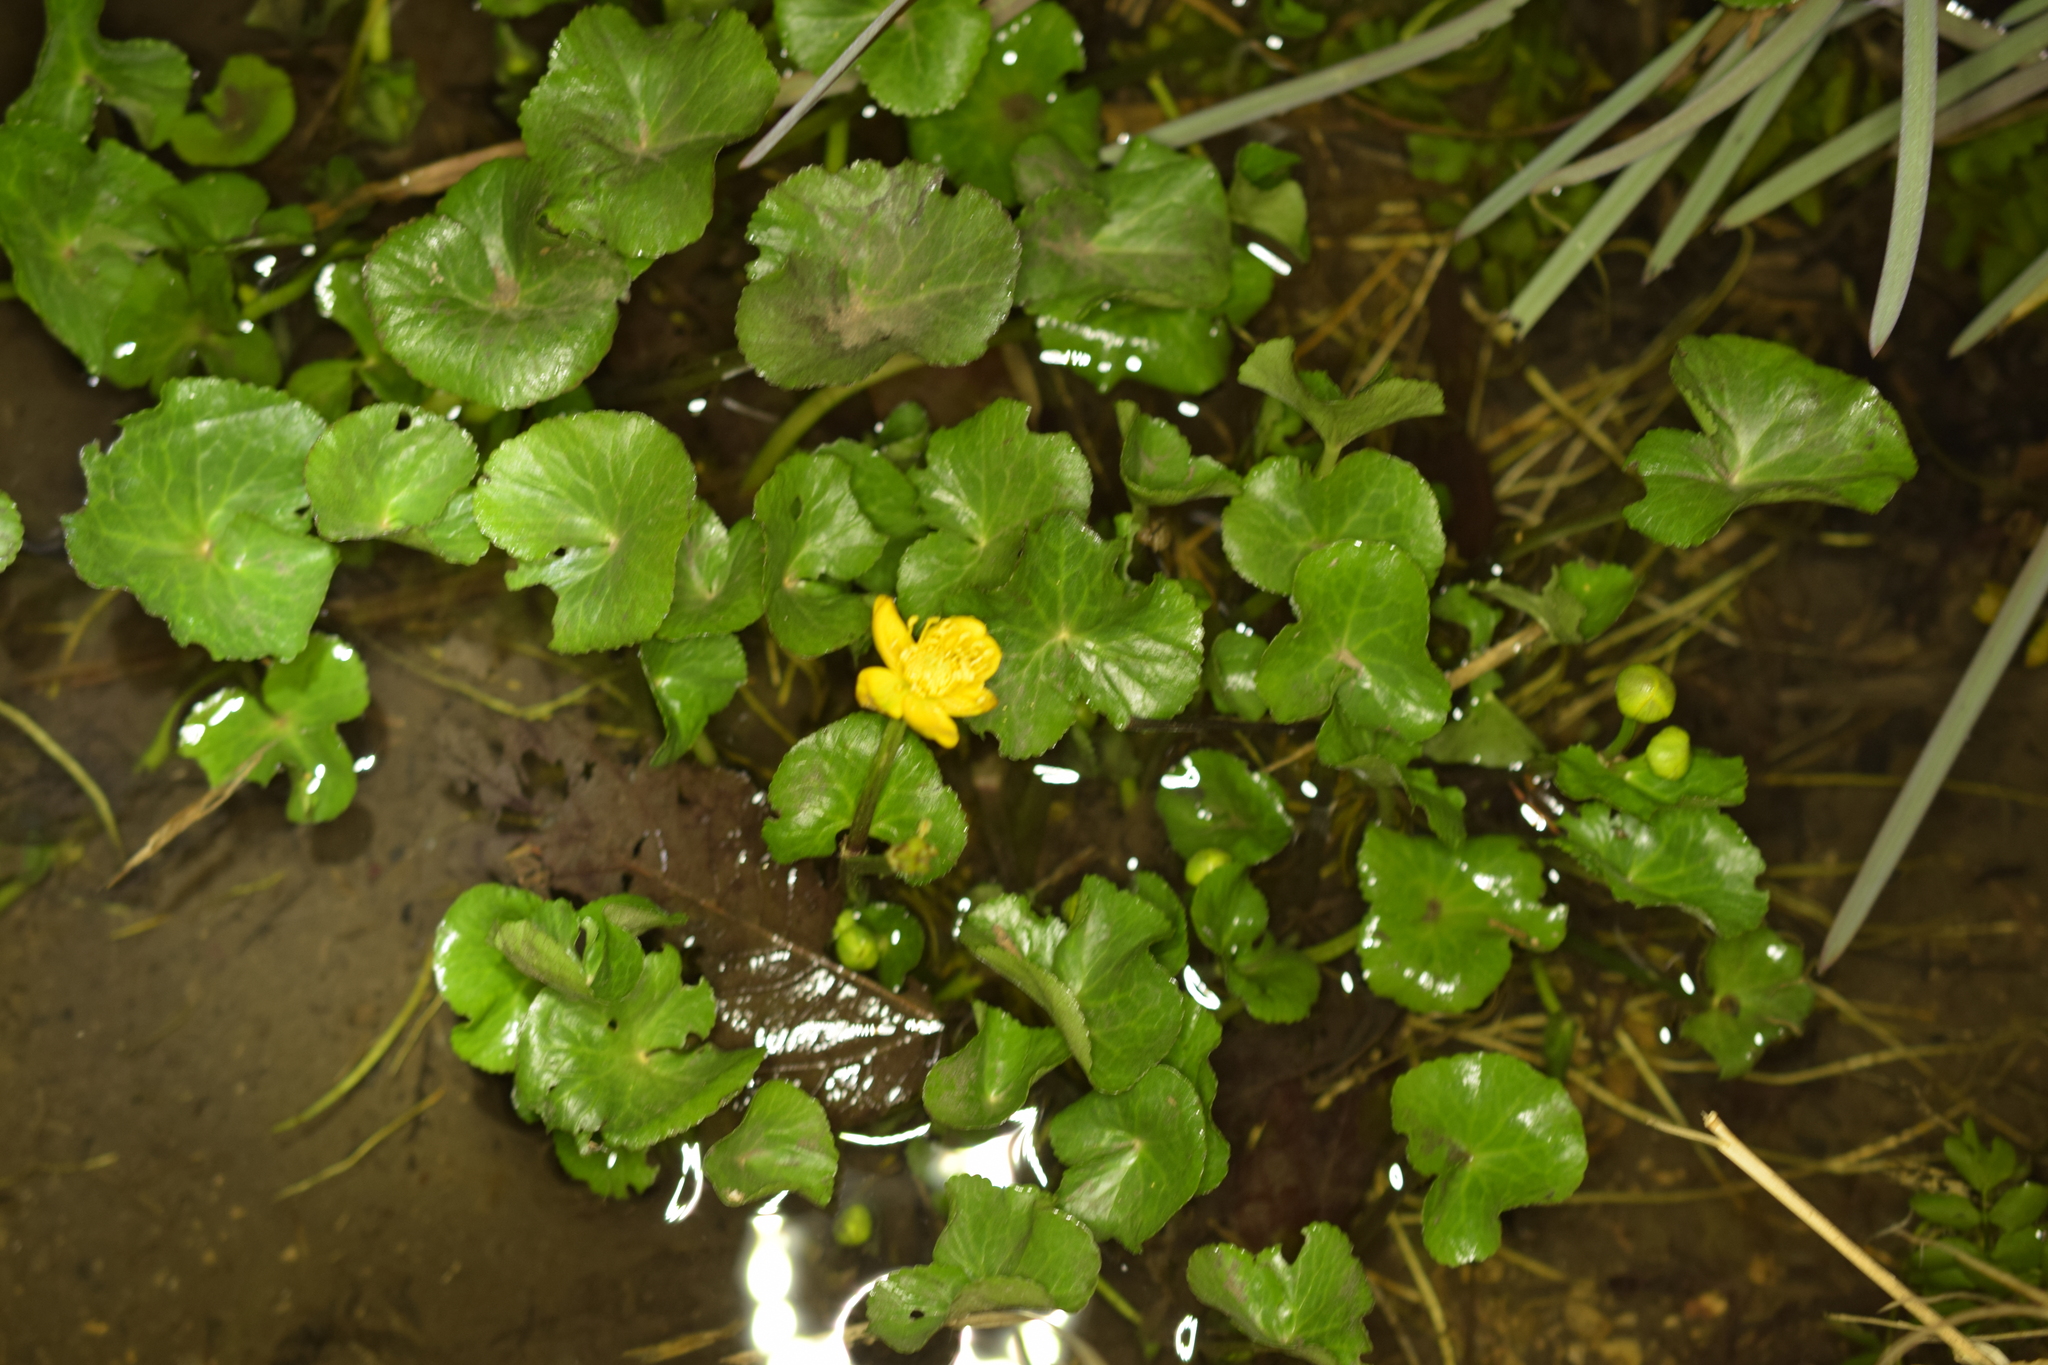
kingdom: Plantae
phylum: Tracheophyta
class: Magnoliopsida
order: Ranunculales
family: Ranunculaceae
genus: Caltha
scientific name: Caltha palustris
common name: Marsh marigold
